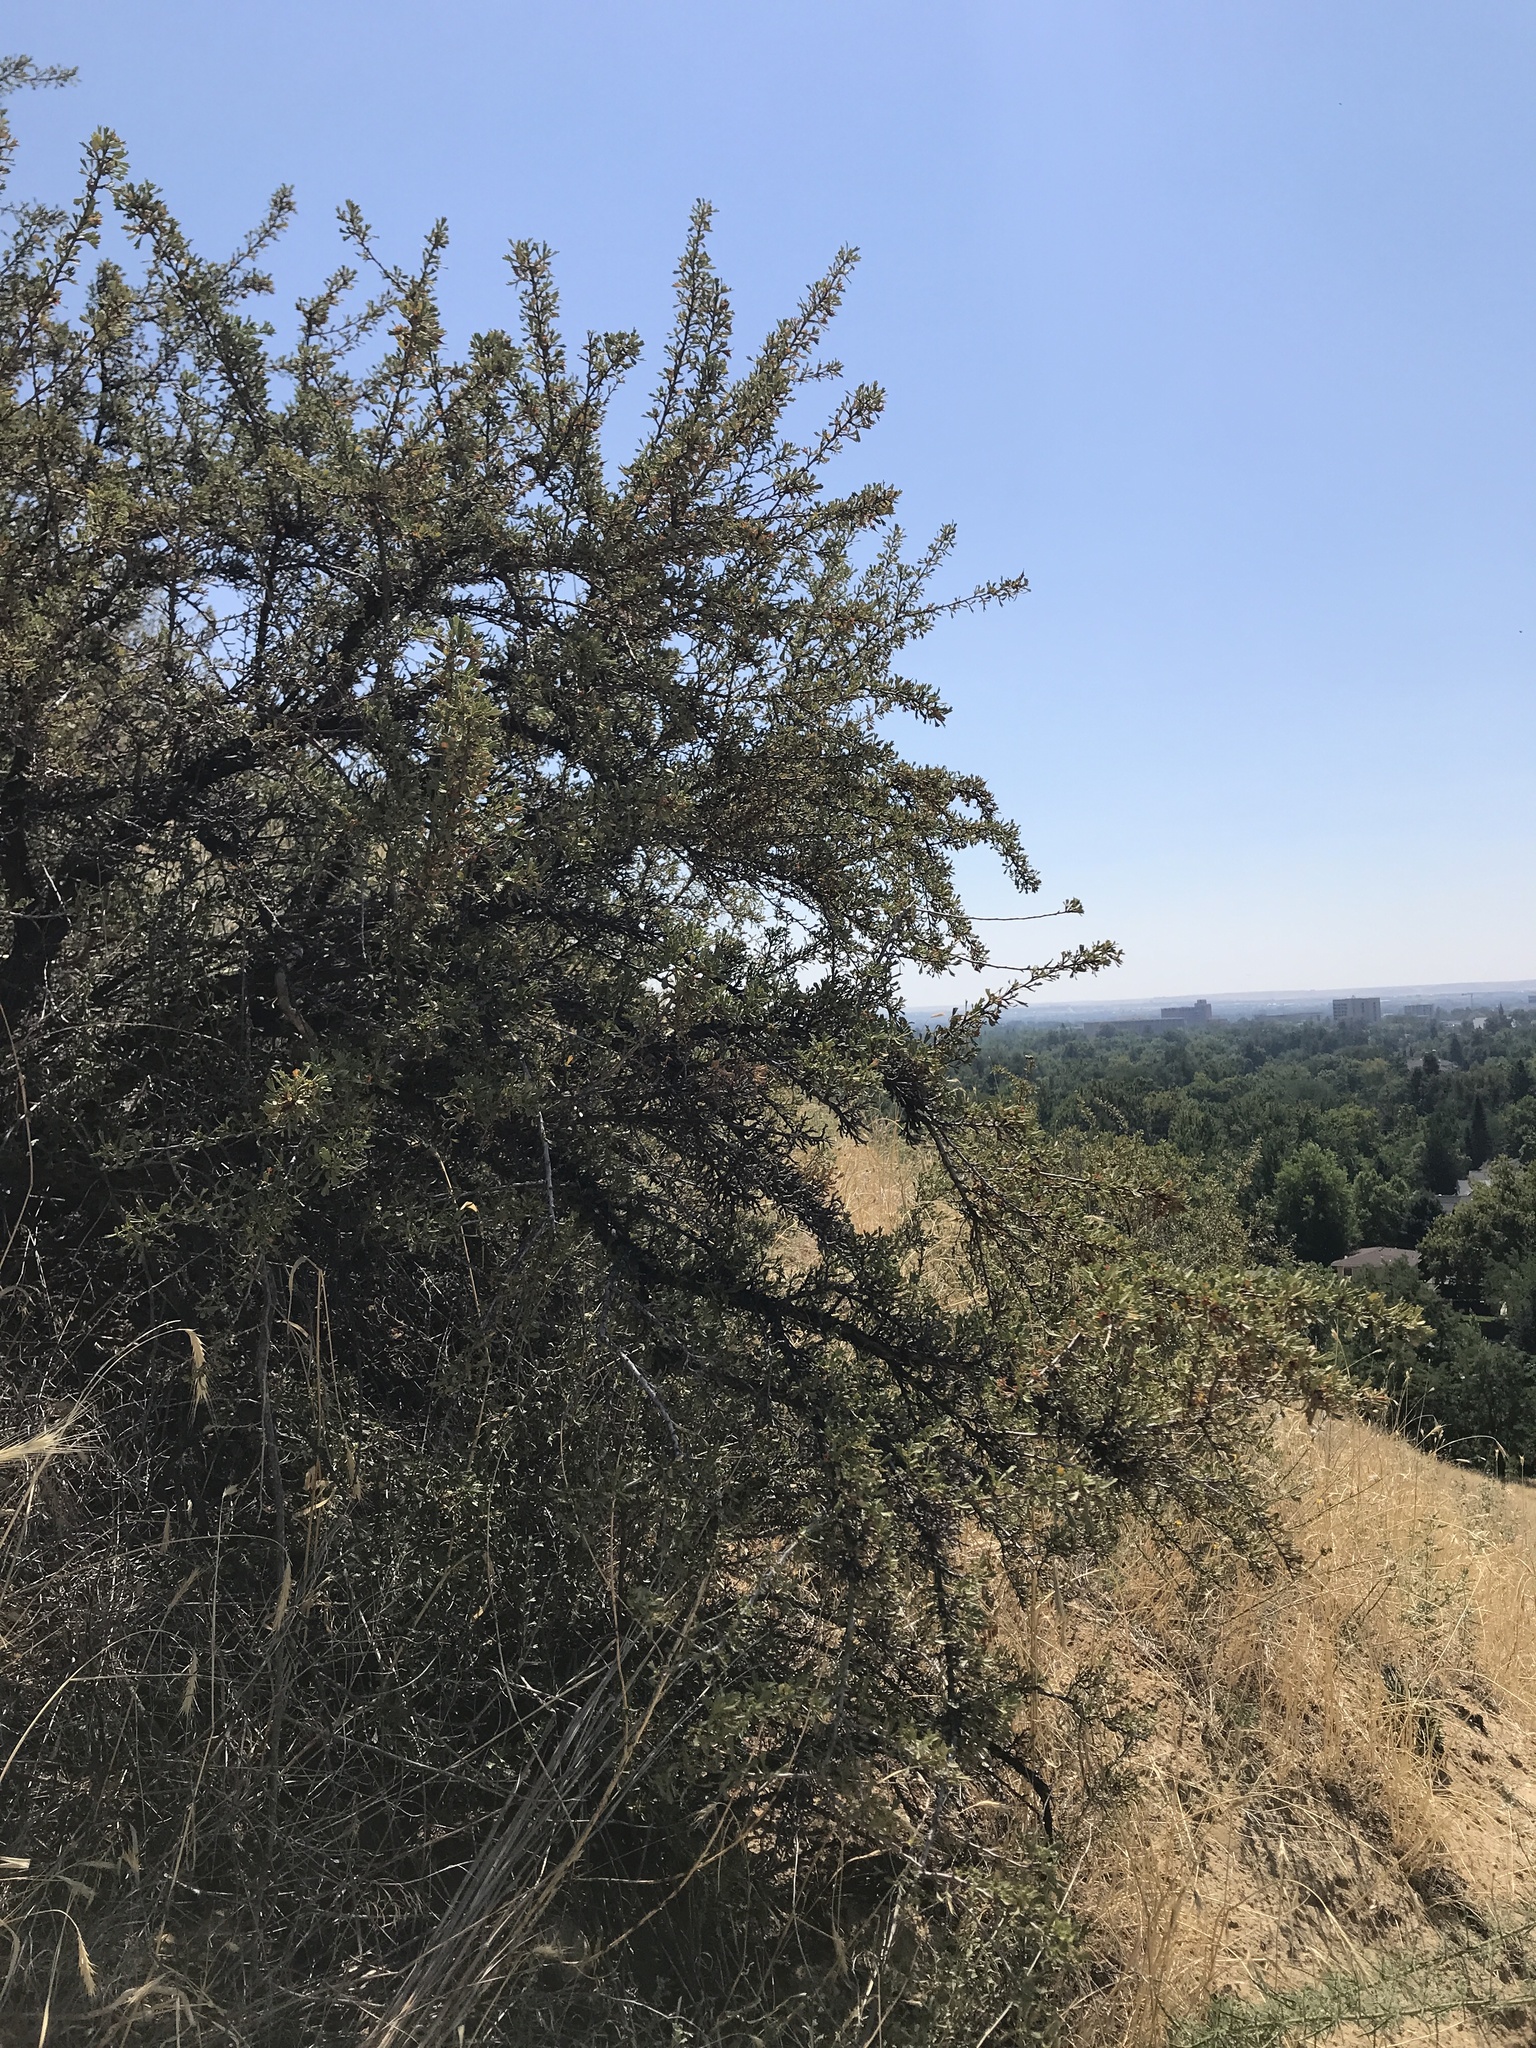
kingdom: Plantae
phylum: Tracheophyta
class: Magnoliopsida
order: Rosales
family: Rosaceae
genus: Purshia
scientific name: Purshia tridentata
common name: Antelope bitterbrush
